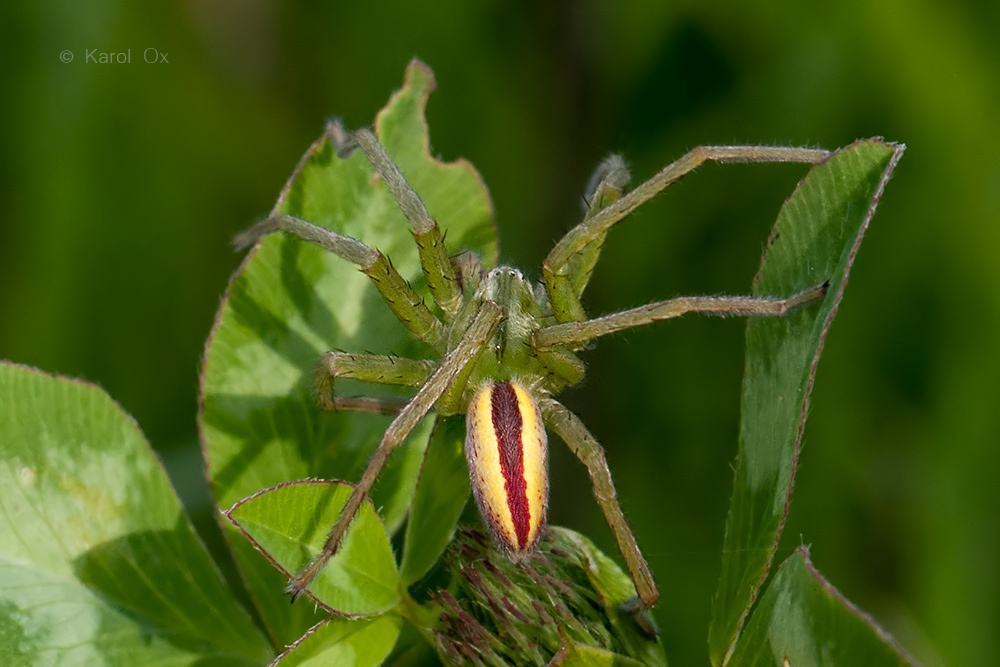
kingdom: Animalia
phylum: Arthropoda
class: Arachnida
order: Araneae
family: Sparassidae
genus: Micrommata
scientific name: Micrommata virescens
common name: Green spider
